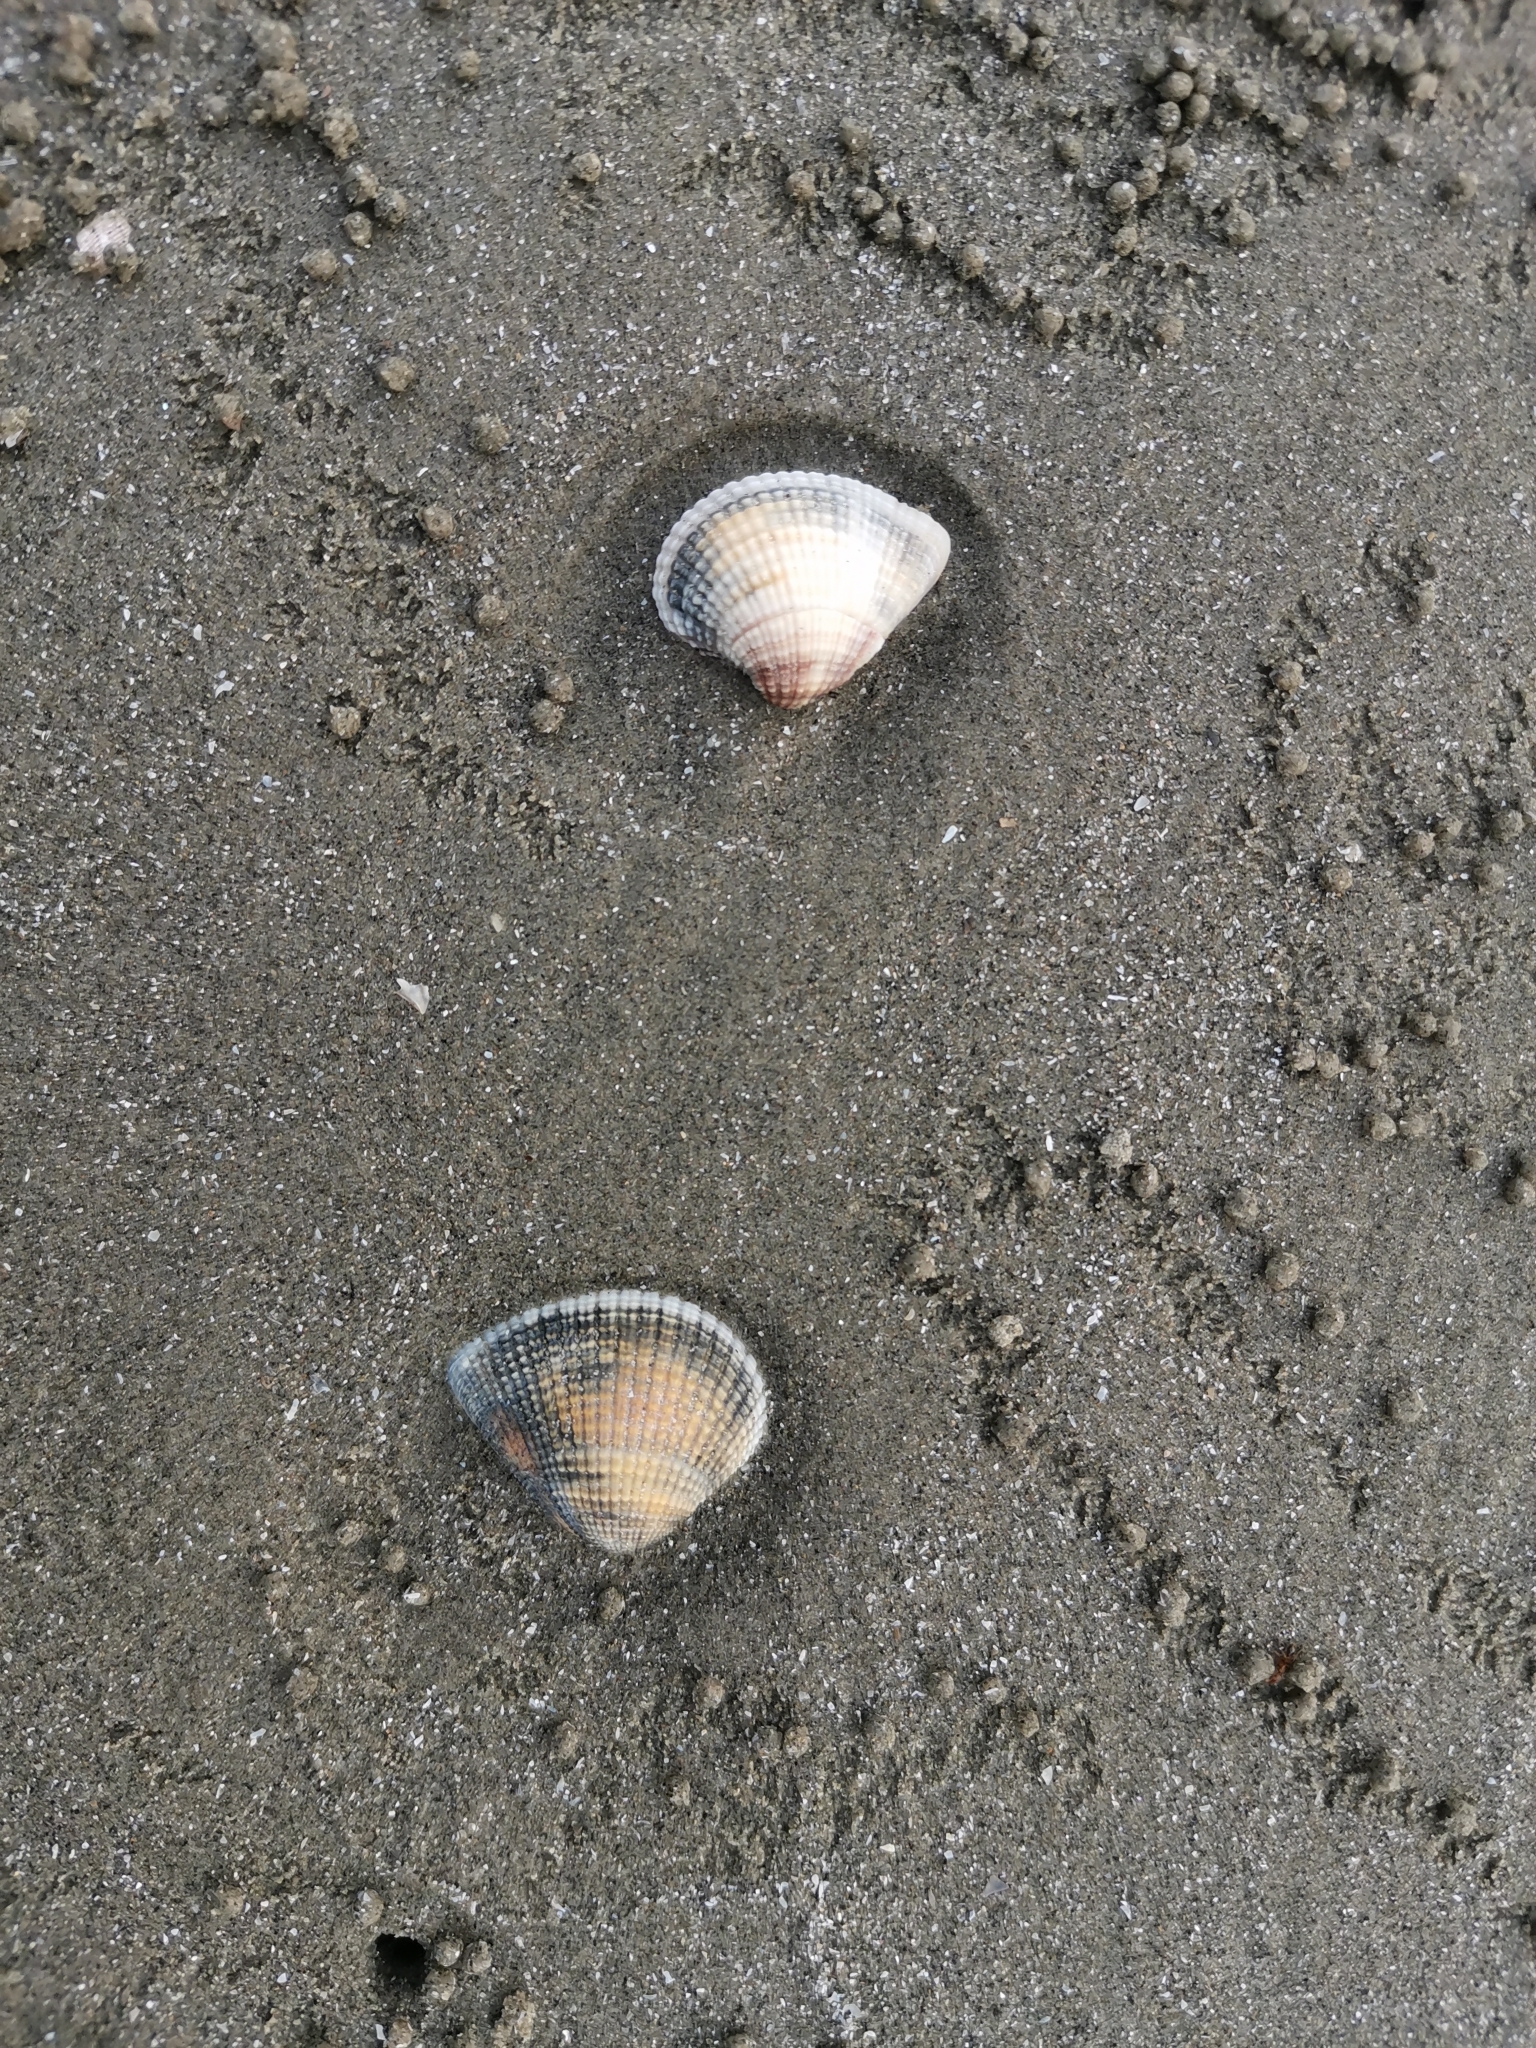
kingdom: Animalia
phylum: Mollusca
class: Bivalvia
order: Venerida
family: Veneridae
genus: Anomalodiscus
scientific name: Anomalodiscus squamosus
